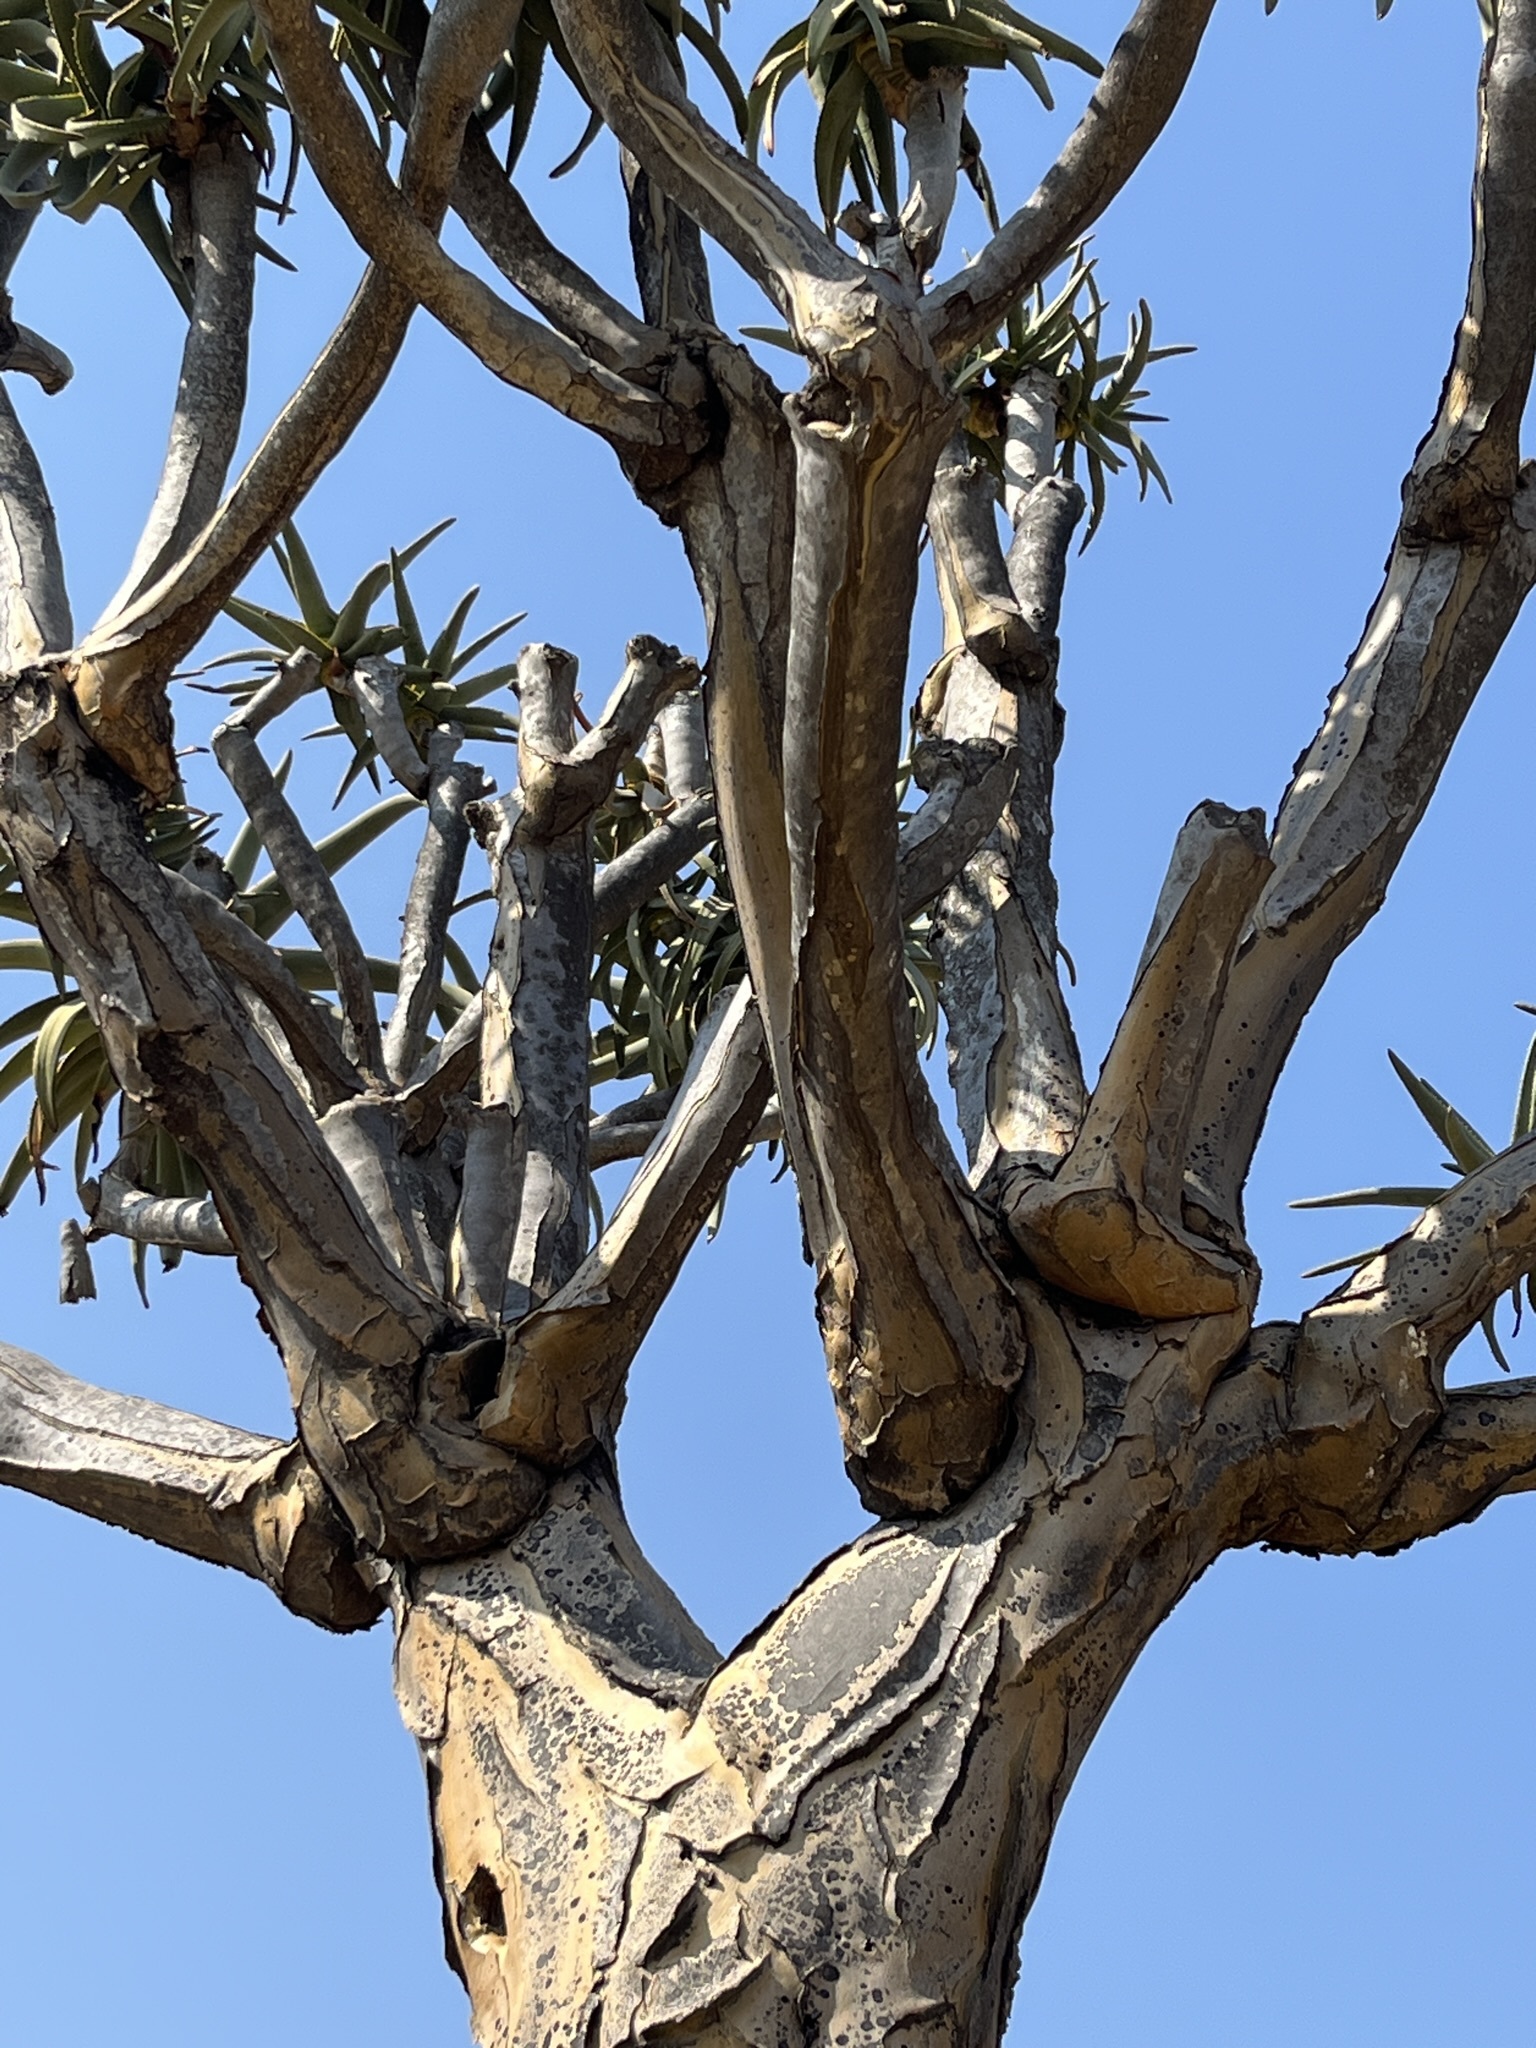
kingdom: Plantae
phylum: Tracheophyta
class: Liliopsida
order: Asparagales
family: Asphodelaceae
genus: Aloidendron
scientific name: Aloidendron dichotomum
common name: Quiver tree
